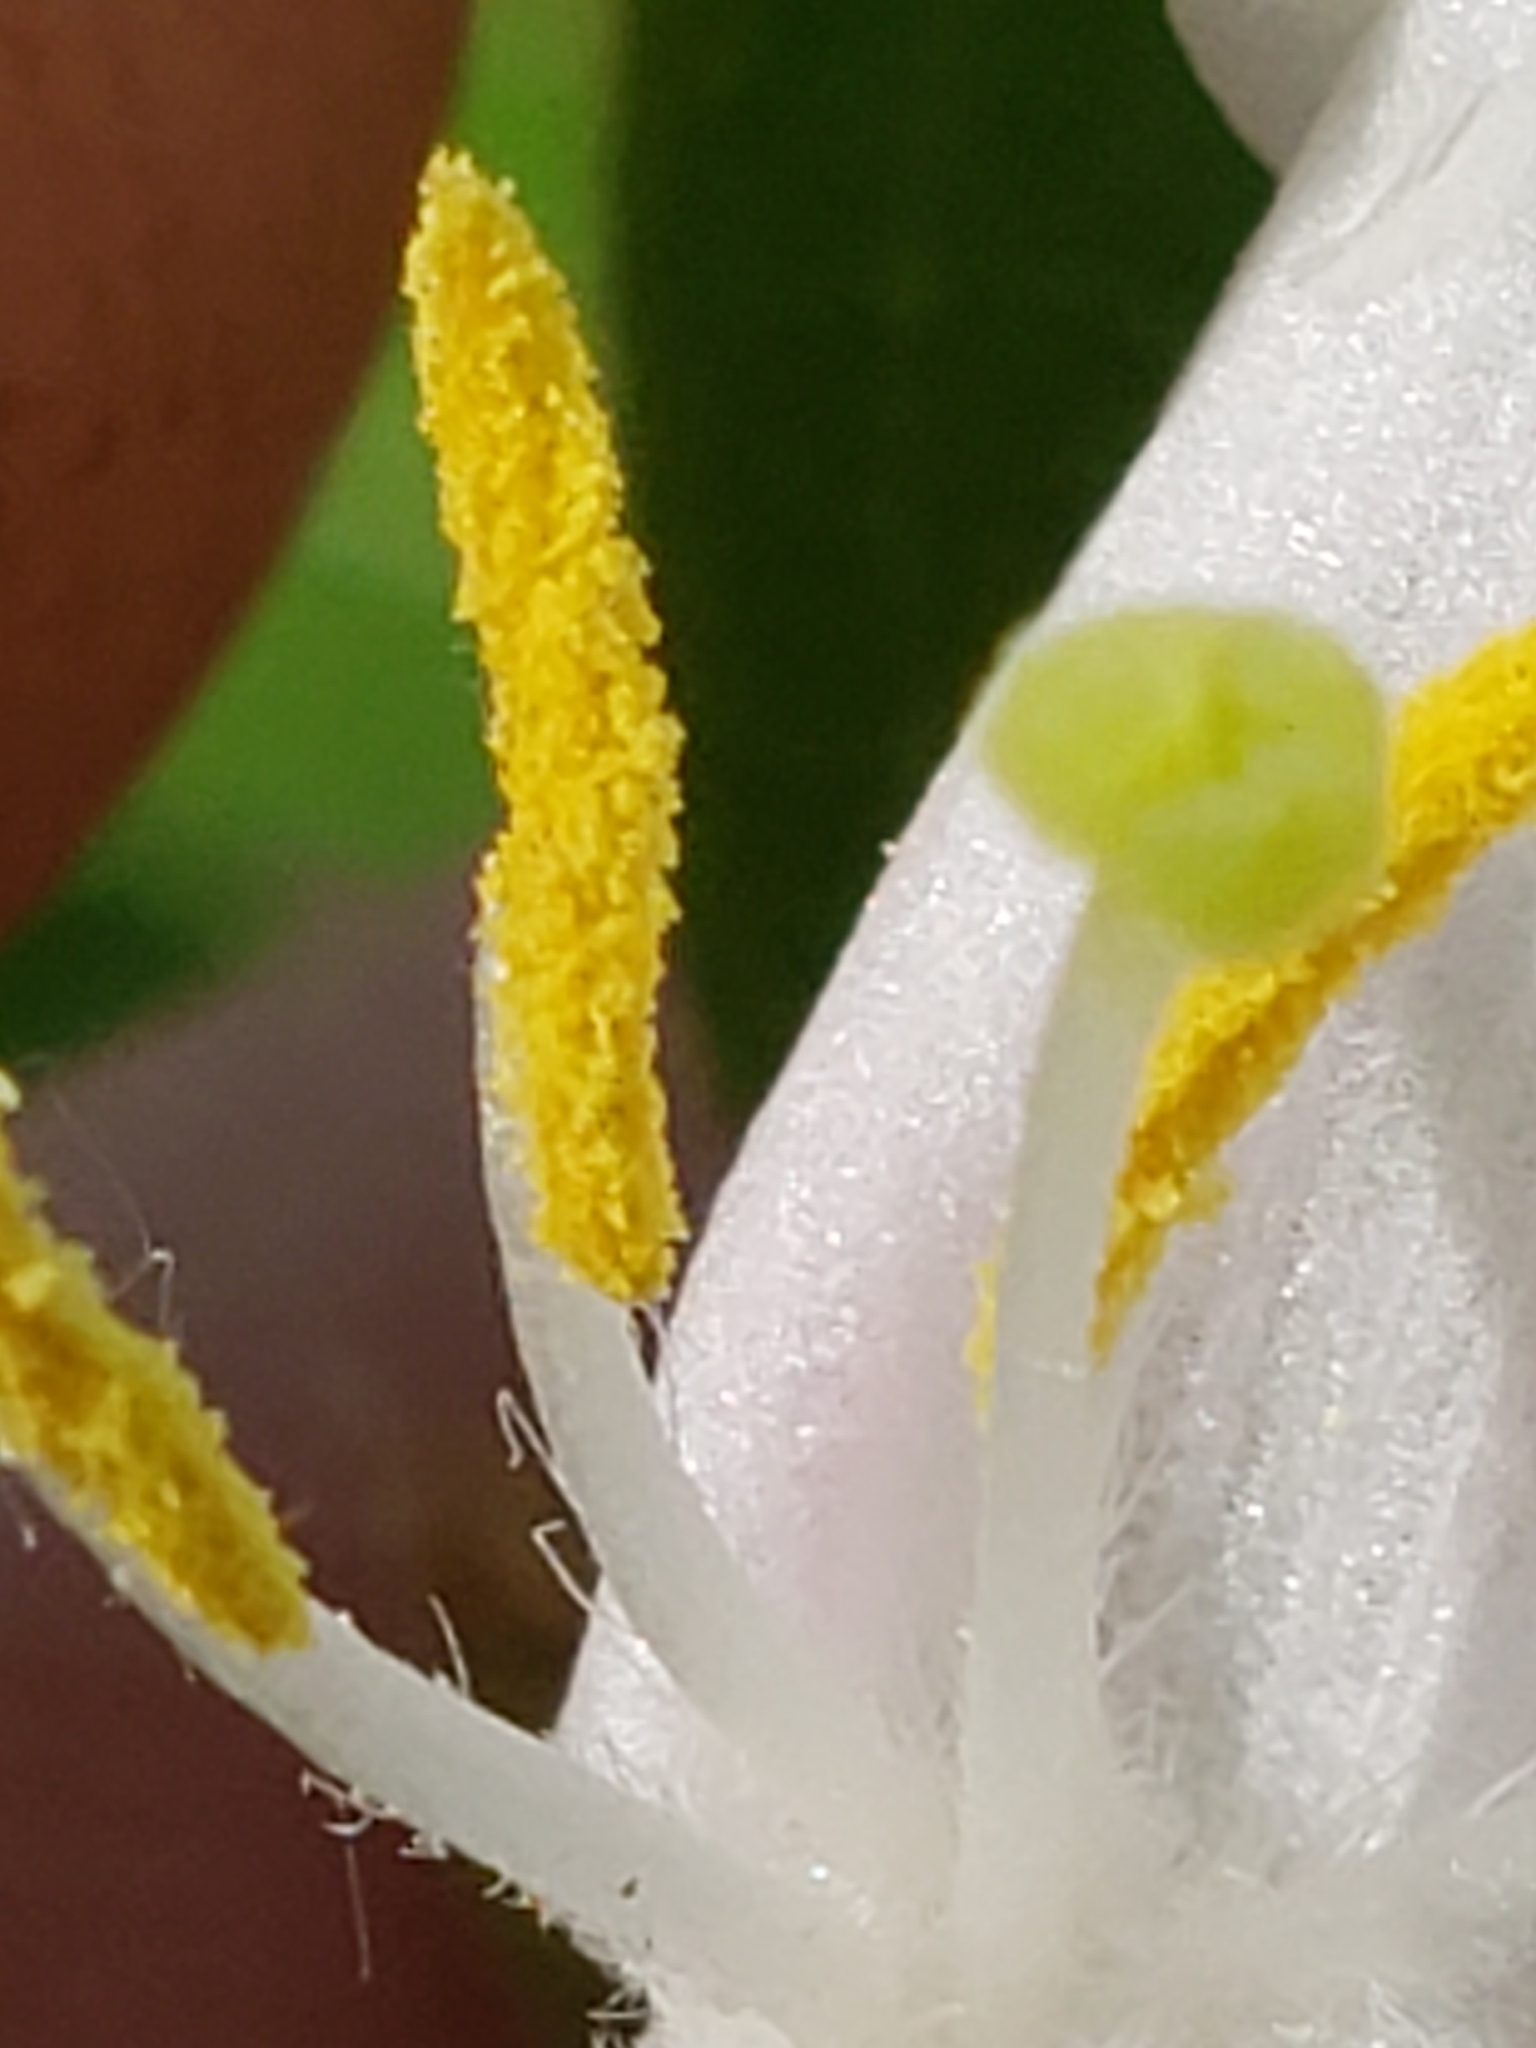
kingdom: Plantae
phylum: Tracheophyta
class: Magnoliopsida
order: Dipsacales
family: Caprifoliaceae
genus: Lonicera
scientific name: Lonicera maackii
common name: Amur honeysuckle
